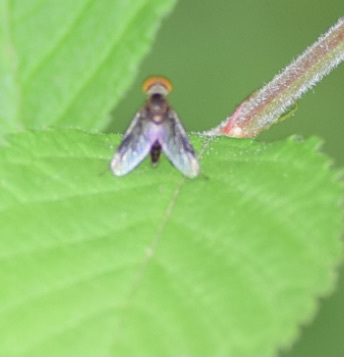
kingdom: Animalia
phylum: Arthropoda
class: Insecta
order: Diptera
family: Rhagionidae
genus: Chrysopilus
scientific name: Chrysopilus quadratus
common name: Quadrate snipe fly
